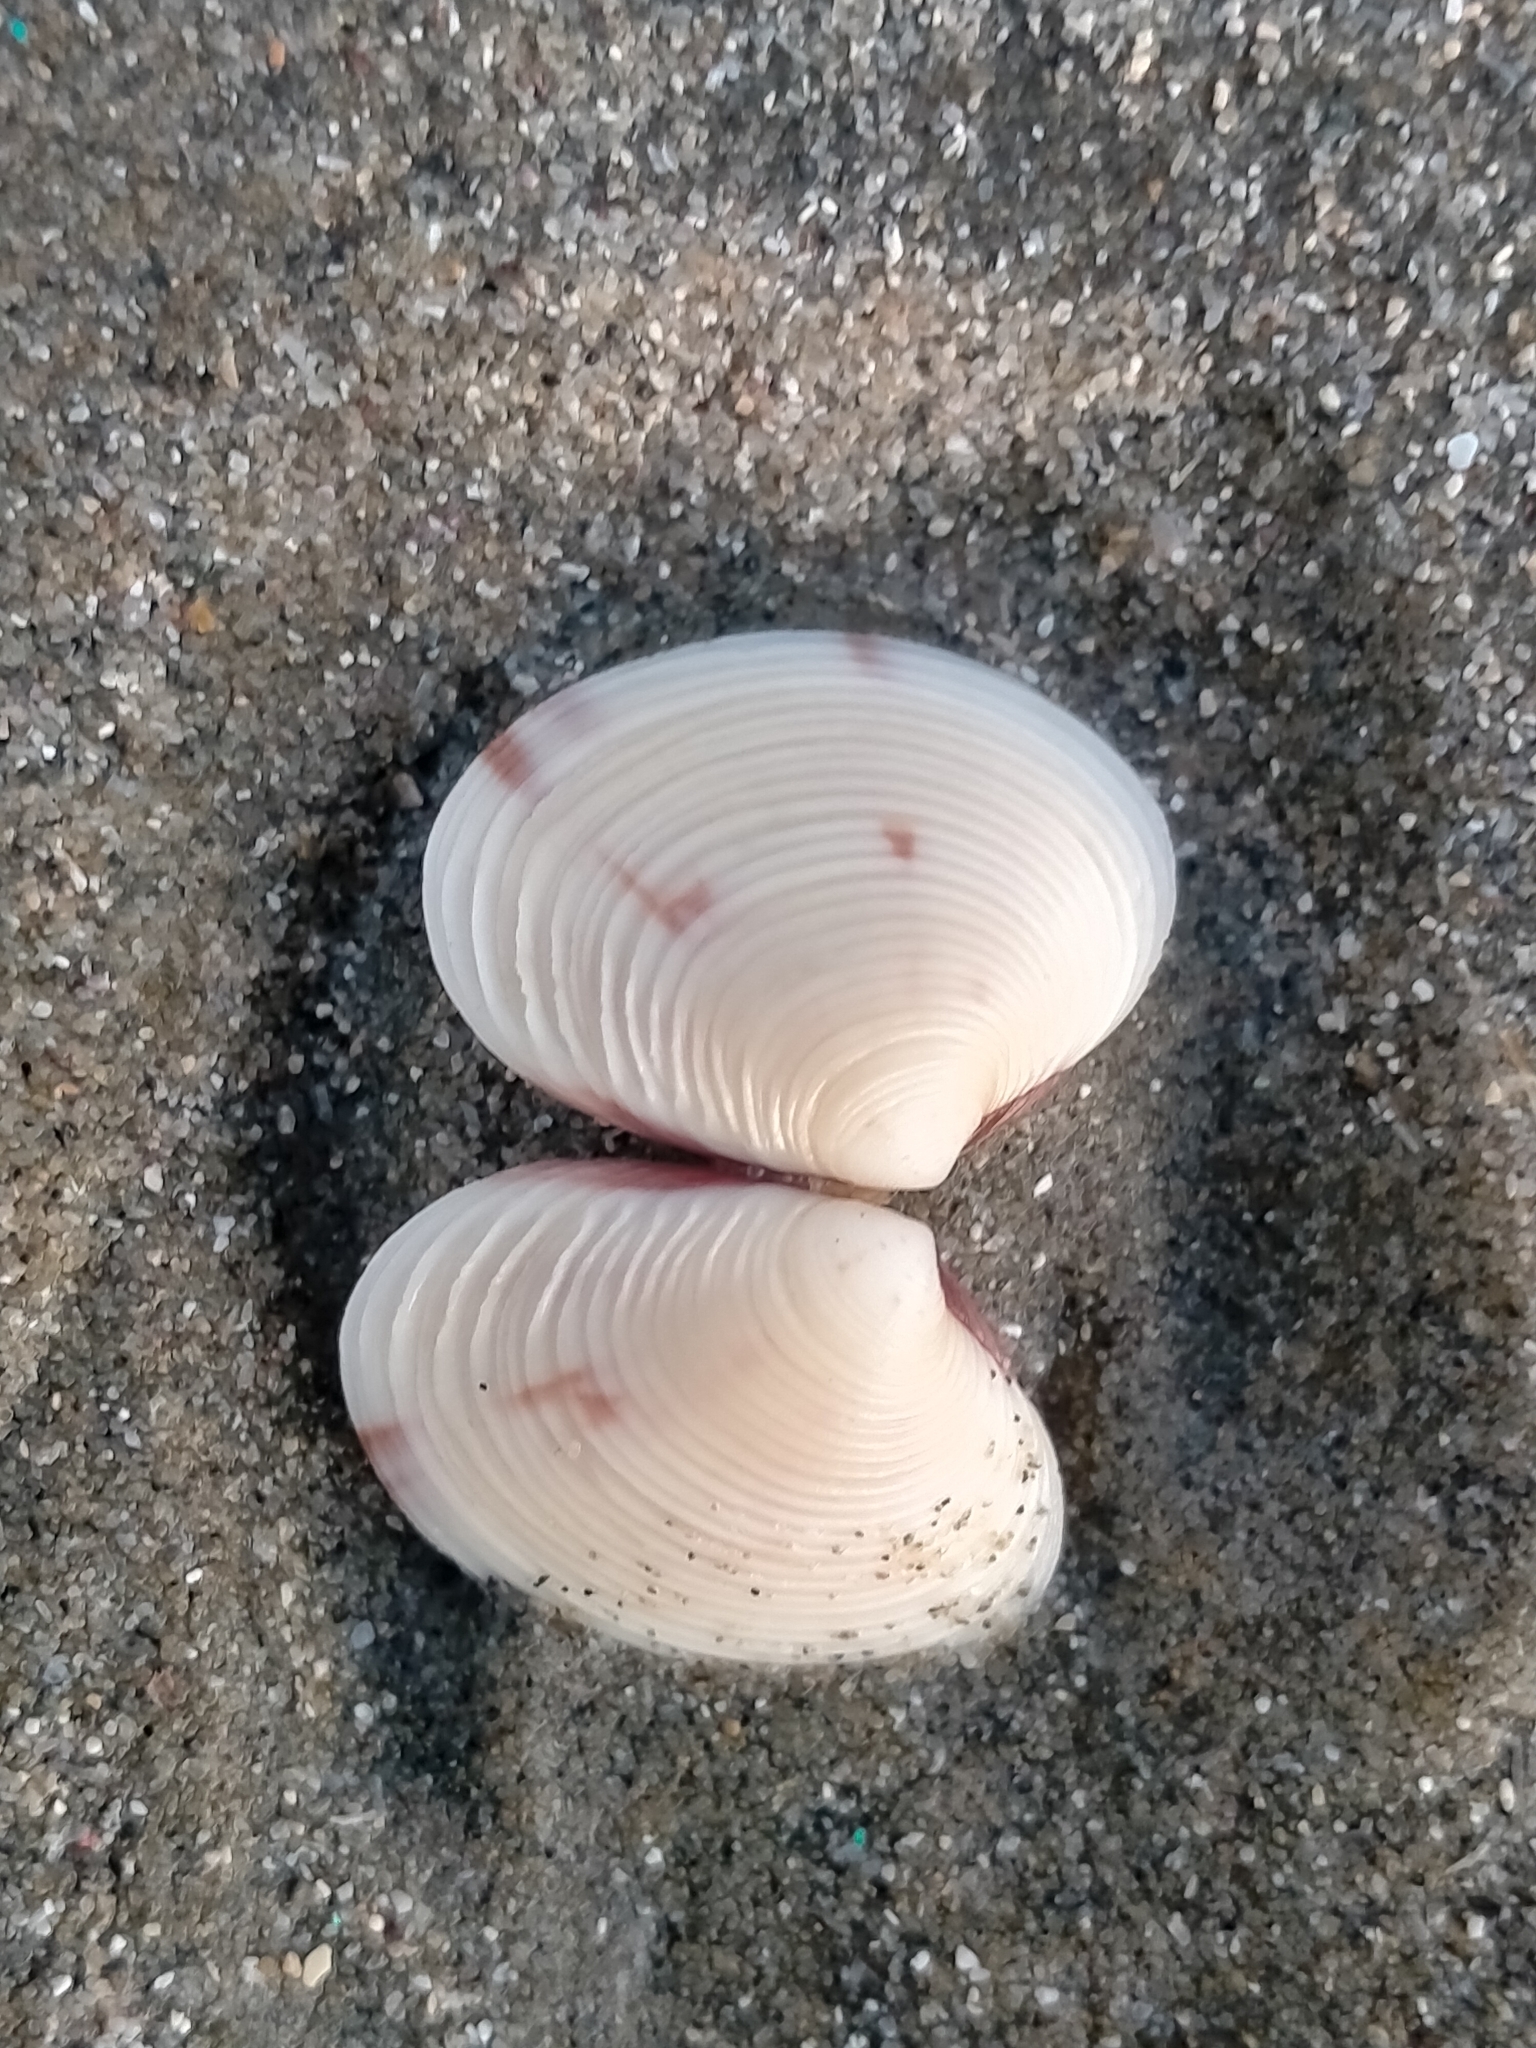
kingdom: Animalia
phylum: Mollusca
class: Bivalvia
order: Venerida
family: Veneridae
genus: Tawera
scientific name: Tawera spissa
